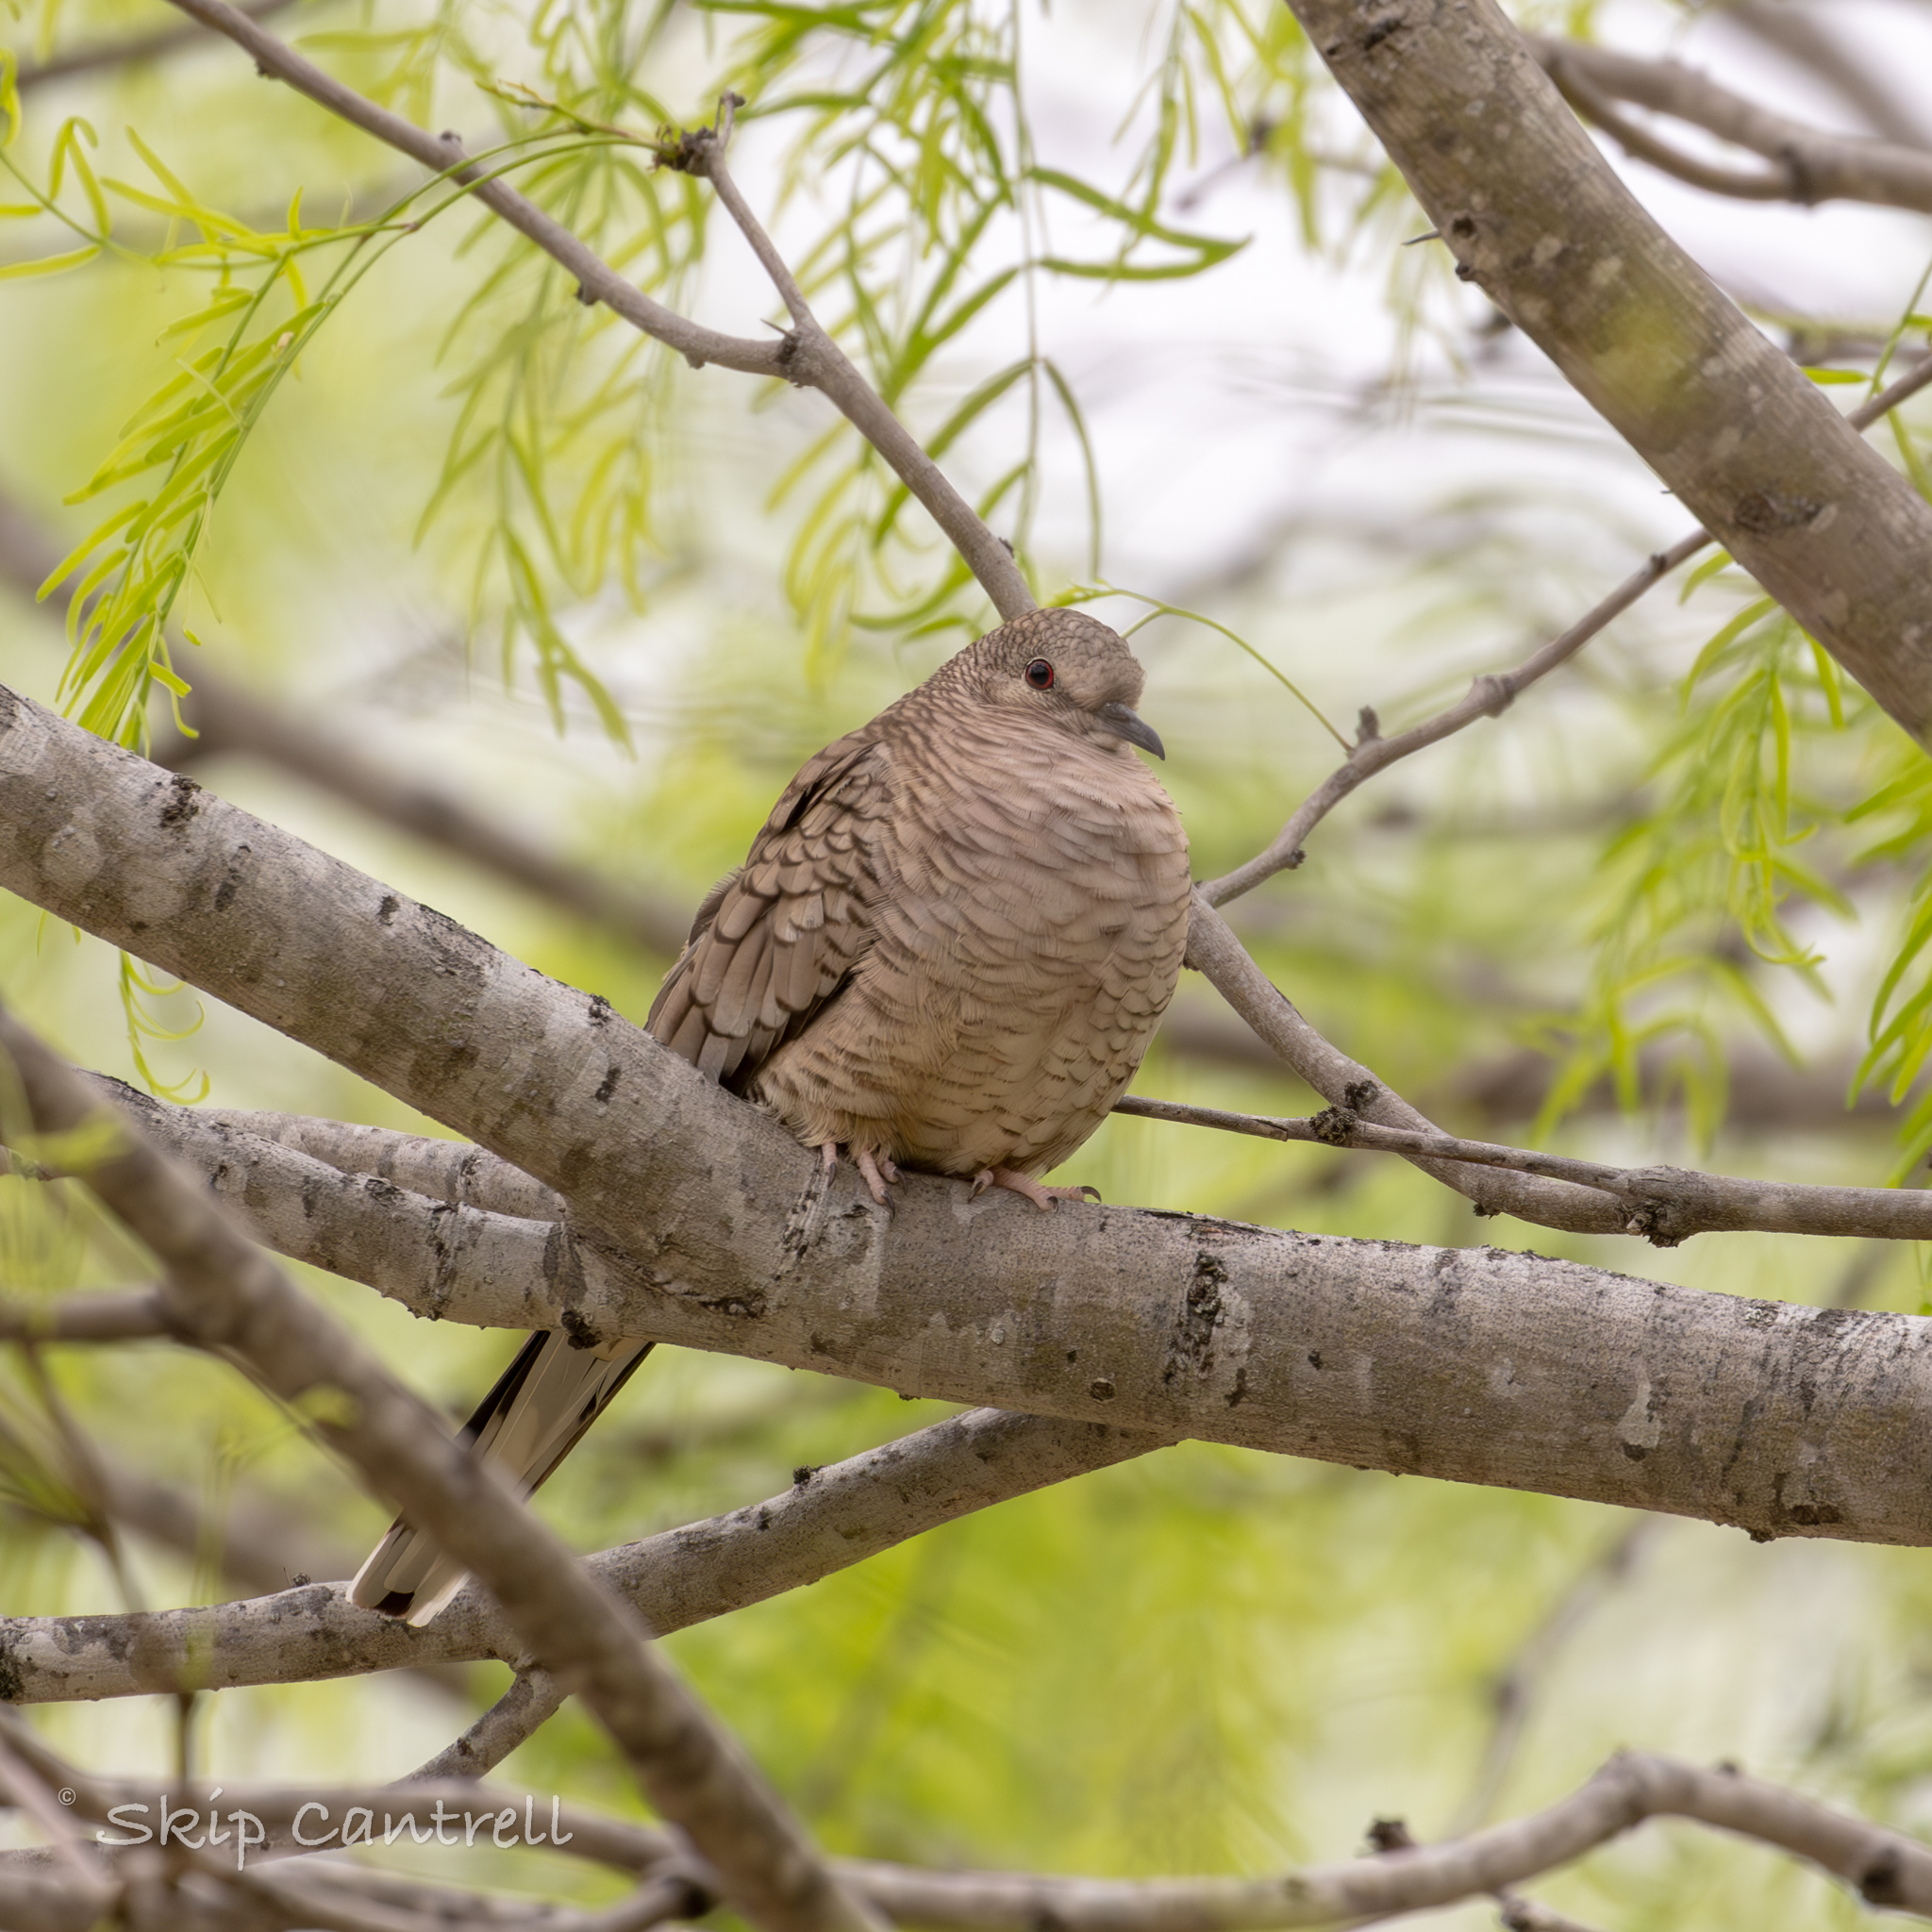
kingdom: Animalia
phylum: Chordata
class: Aves
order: Columbiformes
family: Columbidae
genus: Columbina
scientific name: Columbina inca
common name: Inca dove
